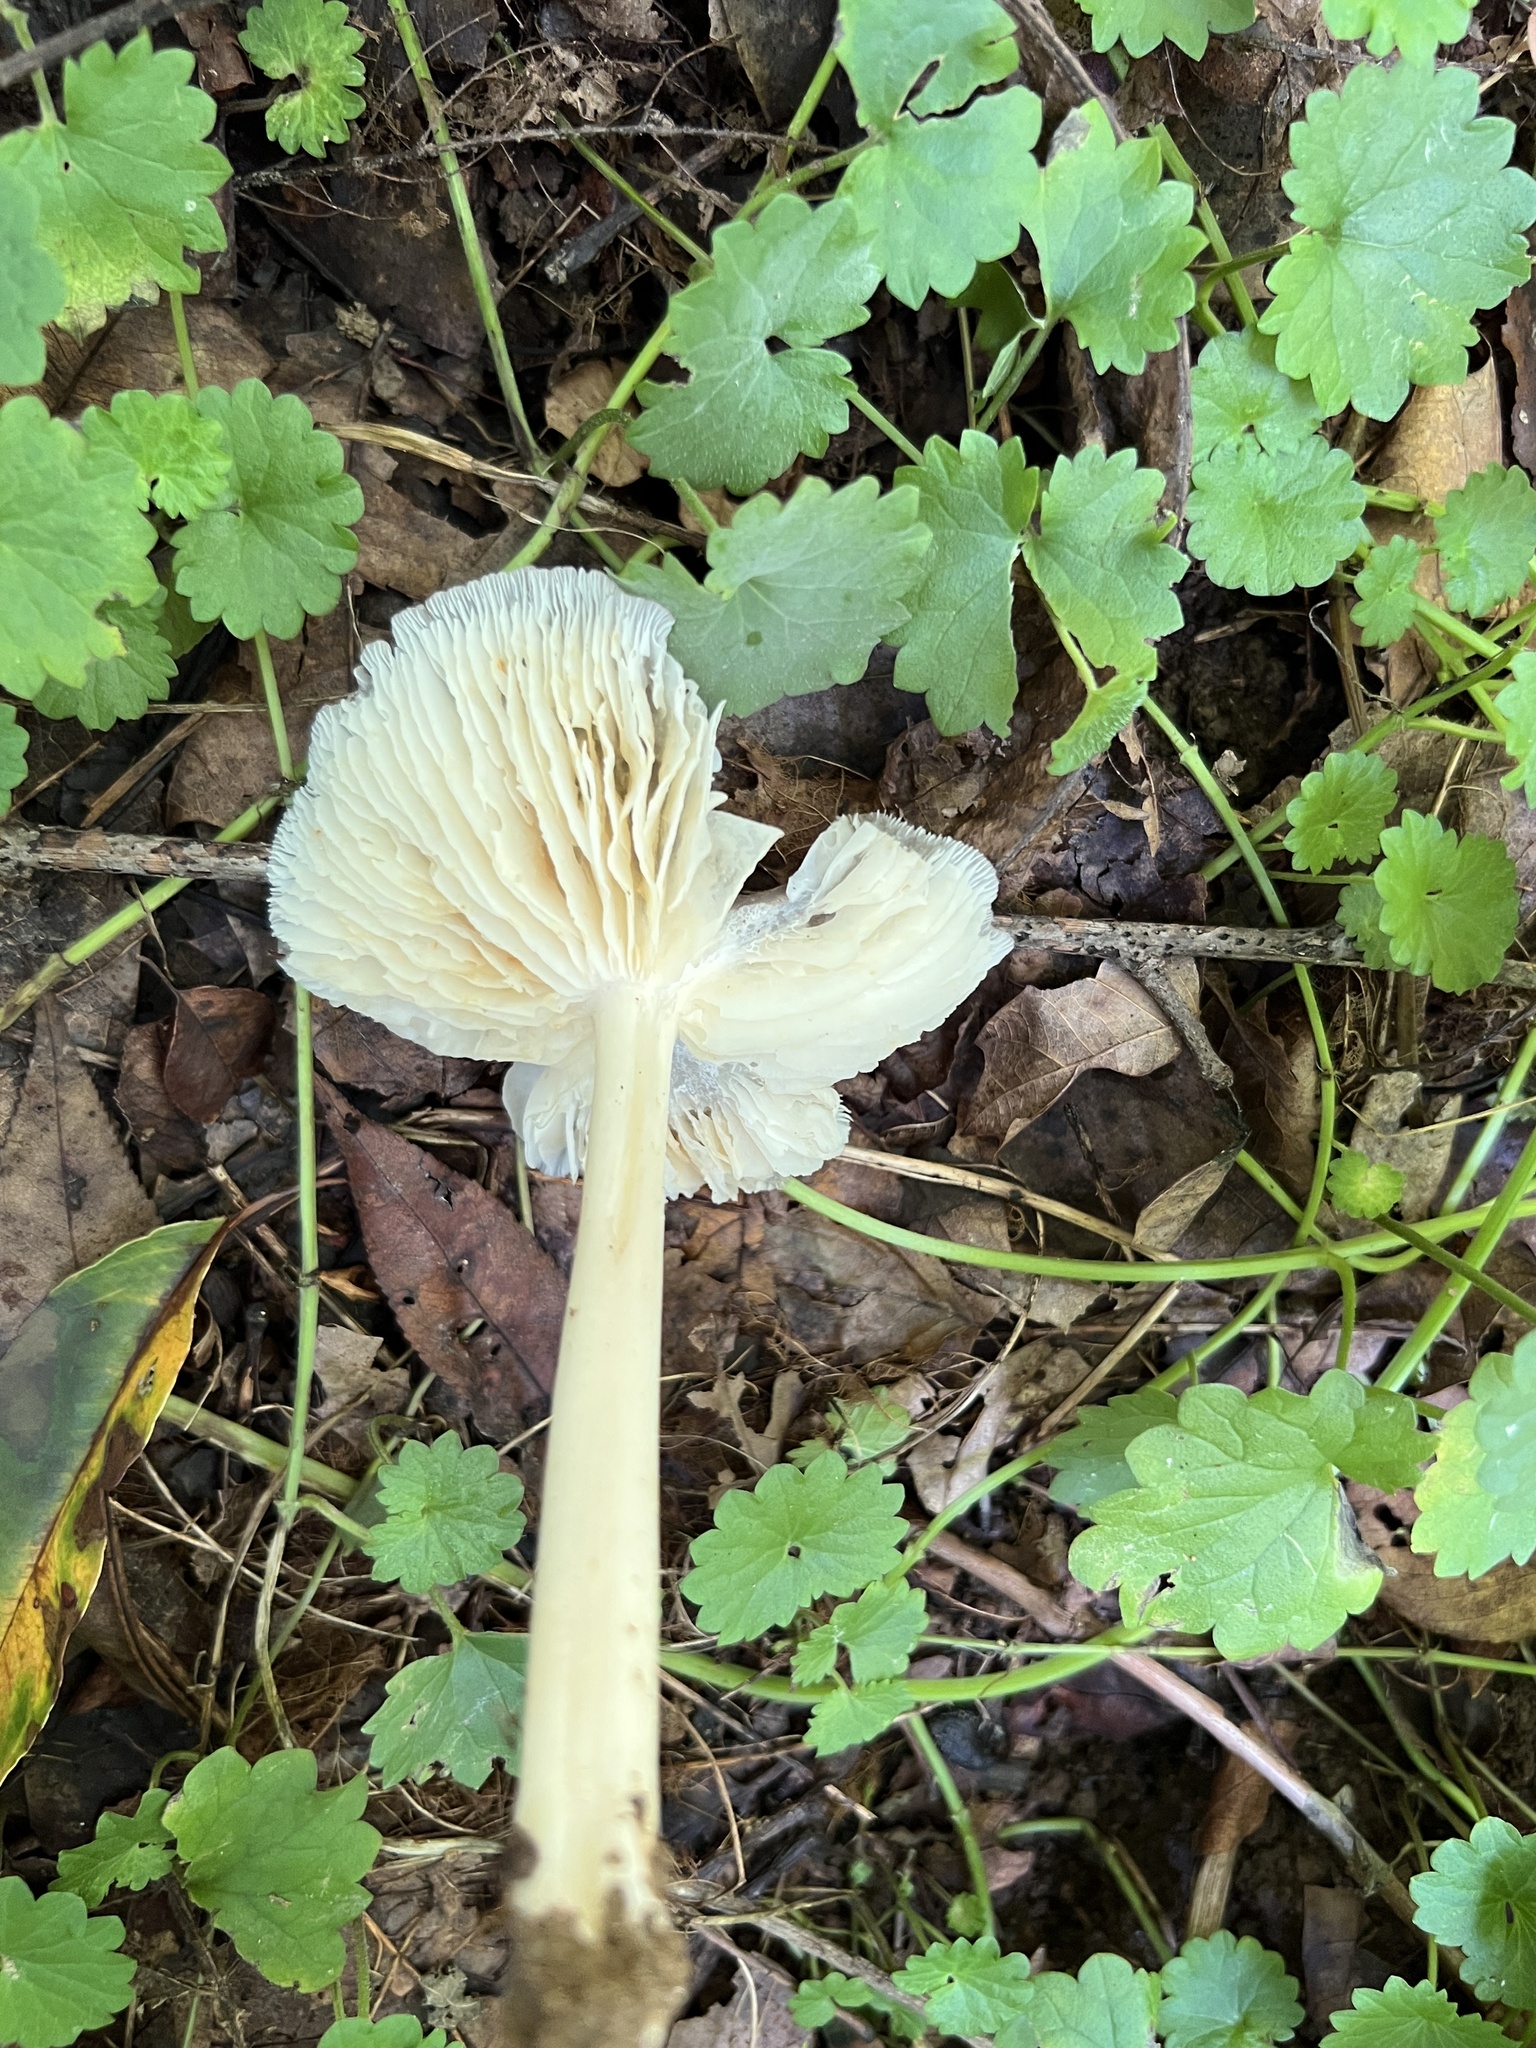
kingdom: Fungi
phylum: Basidiomycota
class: Agaricomycetes
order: Agaricales
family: Tricholomataceae
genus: Megacollybia
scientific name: Megacollybia rodmanii
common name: Eastern american platterful mushroom
